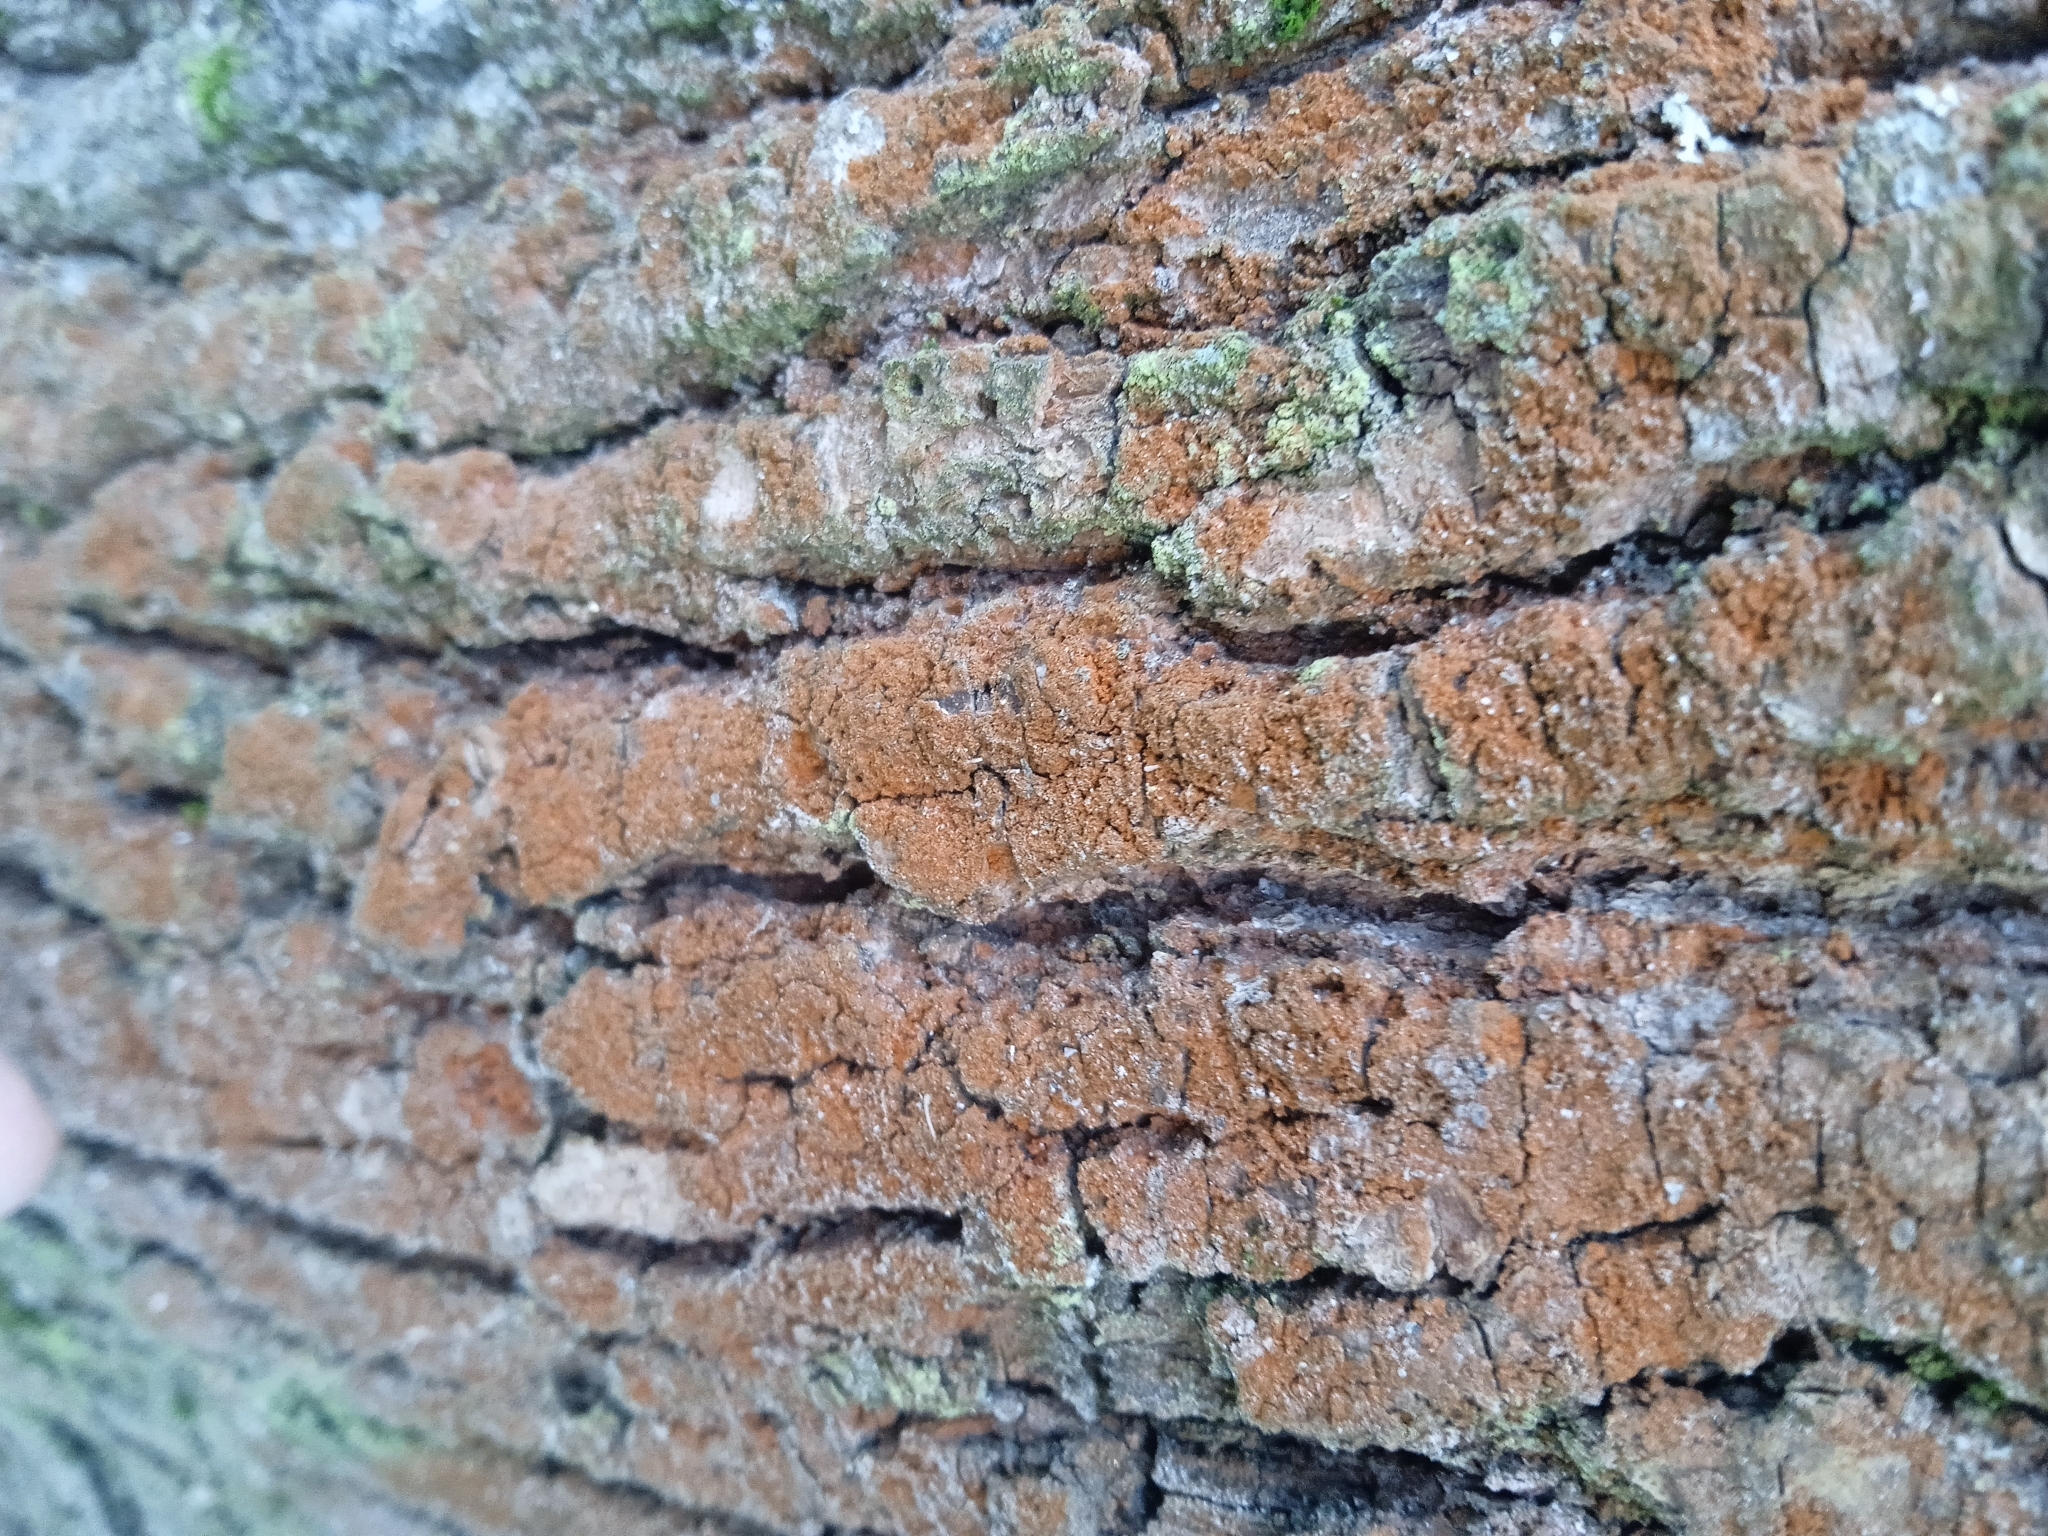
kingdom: Plantae
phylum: Chlorophyta
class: Ulvophyceae
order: Trentepohliales
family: Trentepohliaceae
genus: Trentepohlia
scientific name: Trentepohlia
